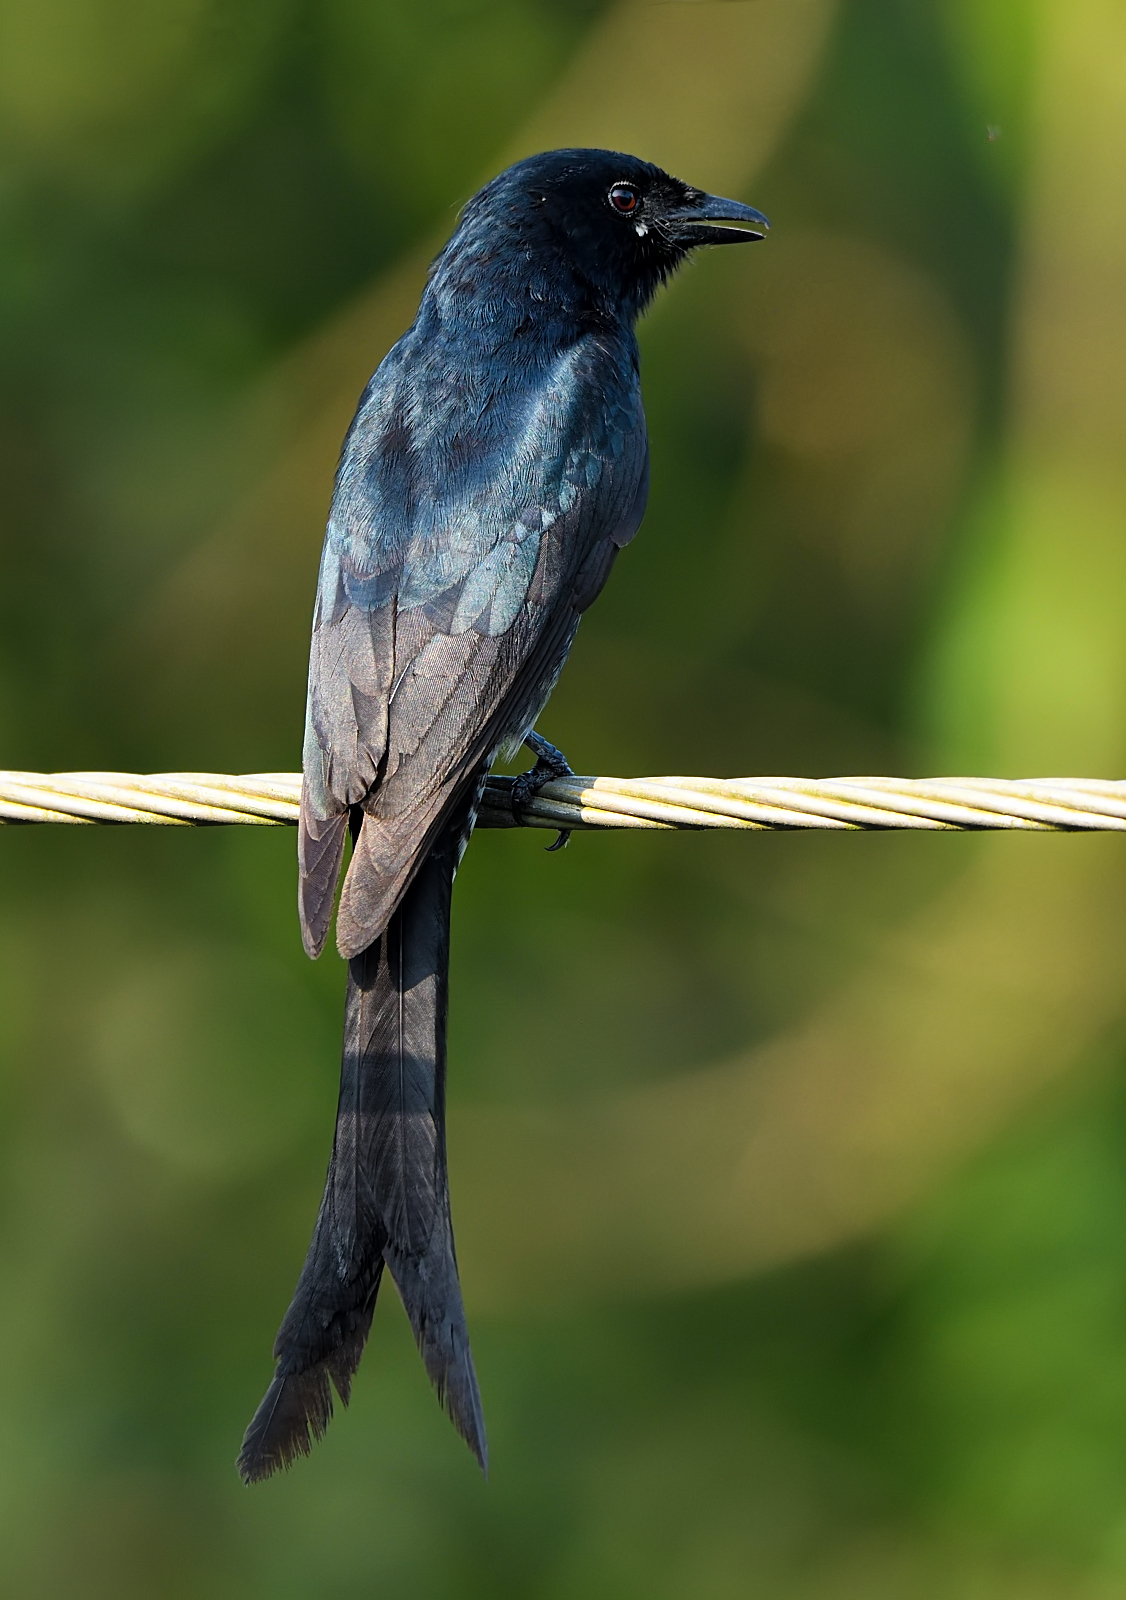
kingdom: Animalia
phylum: Chordata
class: Aves
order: Passeriformes
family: Dicruridae
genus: Dicrurus
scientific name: Dicrurus macrocercus
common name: Black drongo
